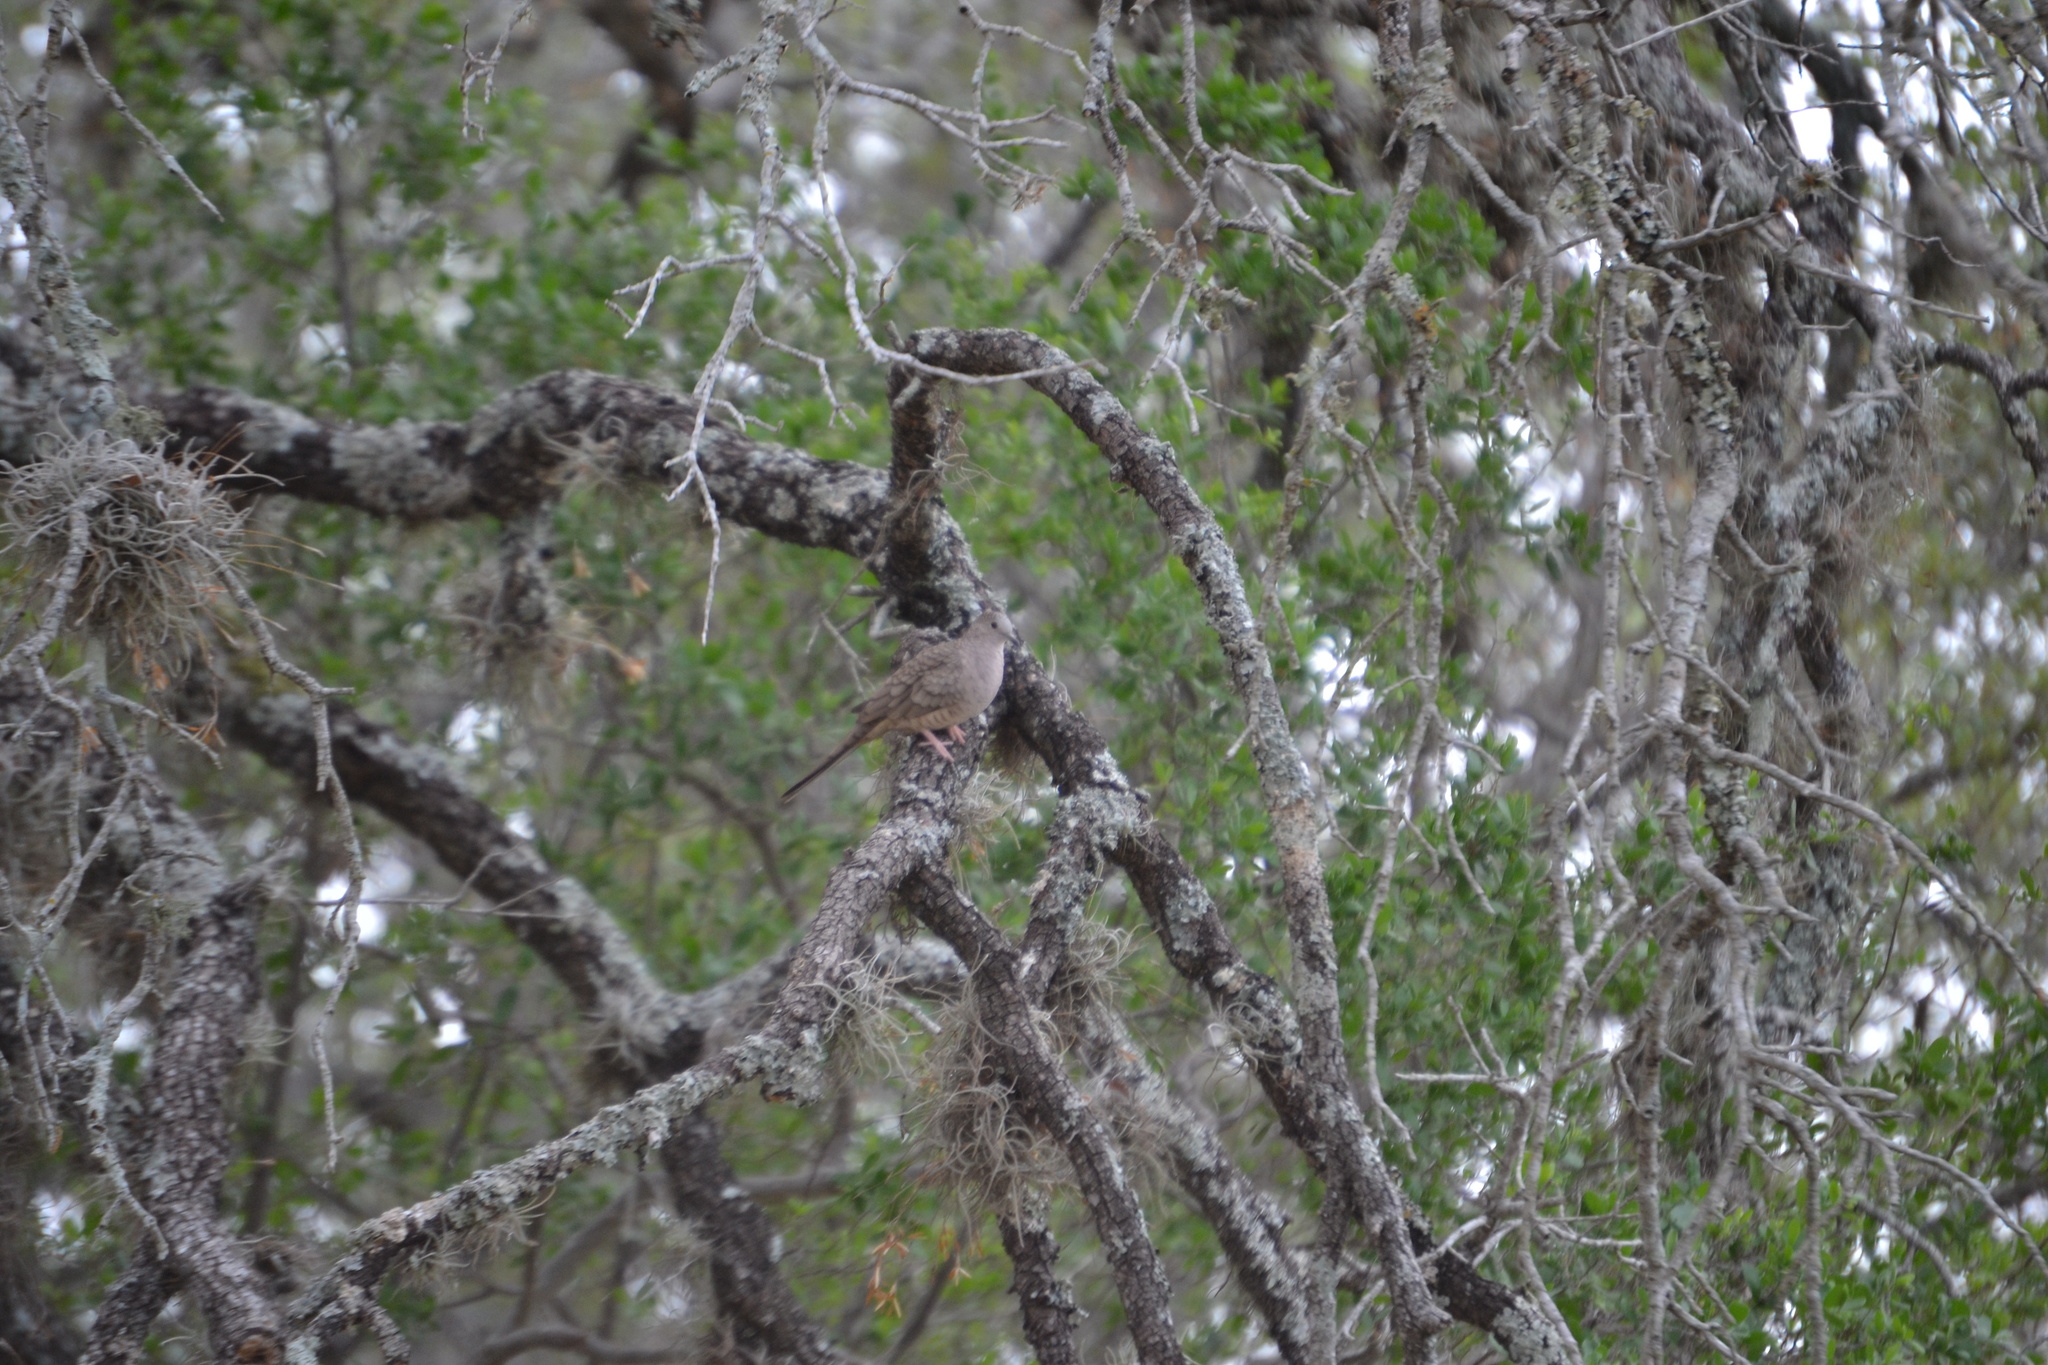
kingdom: Animalia
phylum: Chordata
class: Aves
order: Columbiformes
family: Columbidae
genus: Columbina
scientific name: Columbina inca
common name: Inca dove
